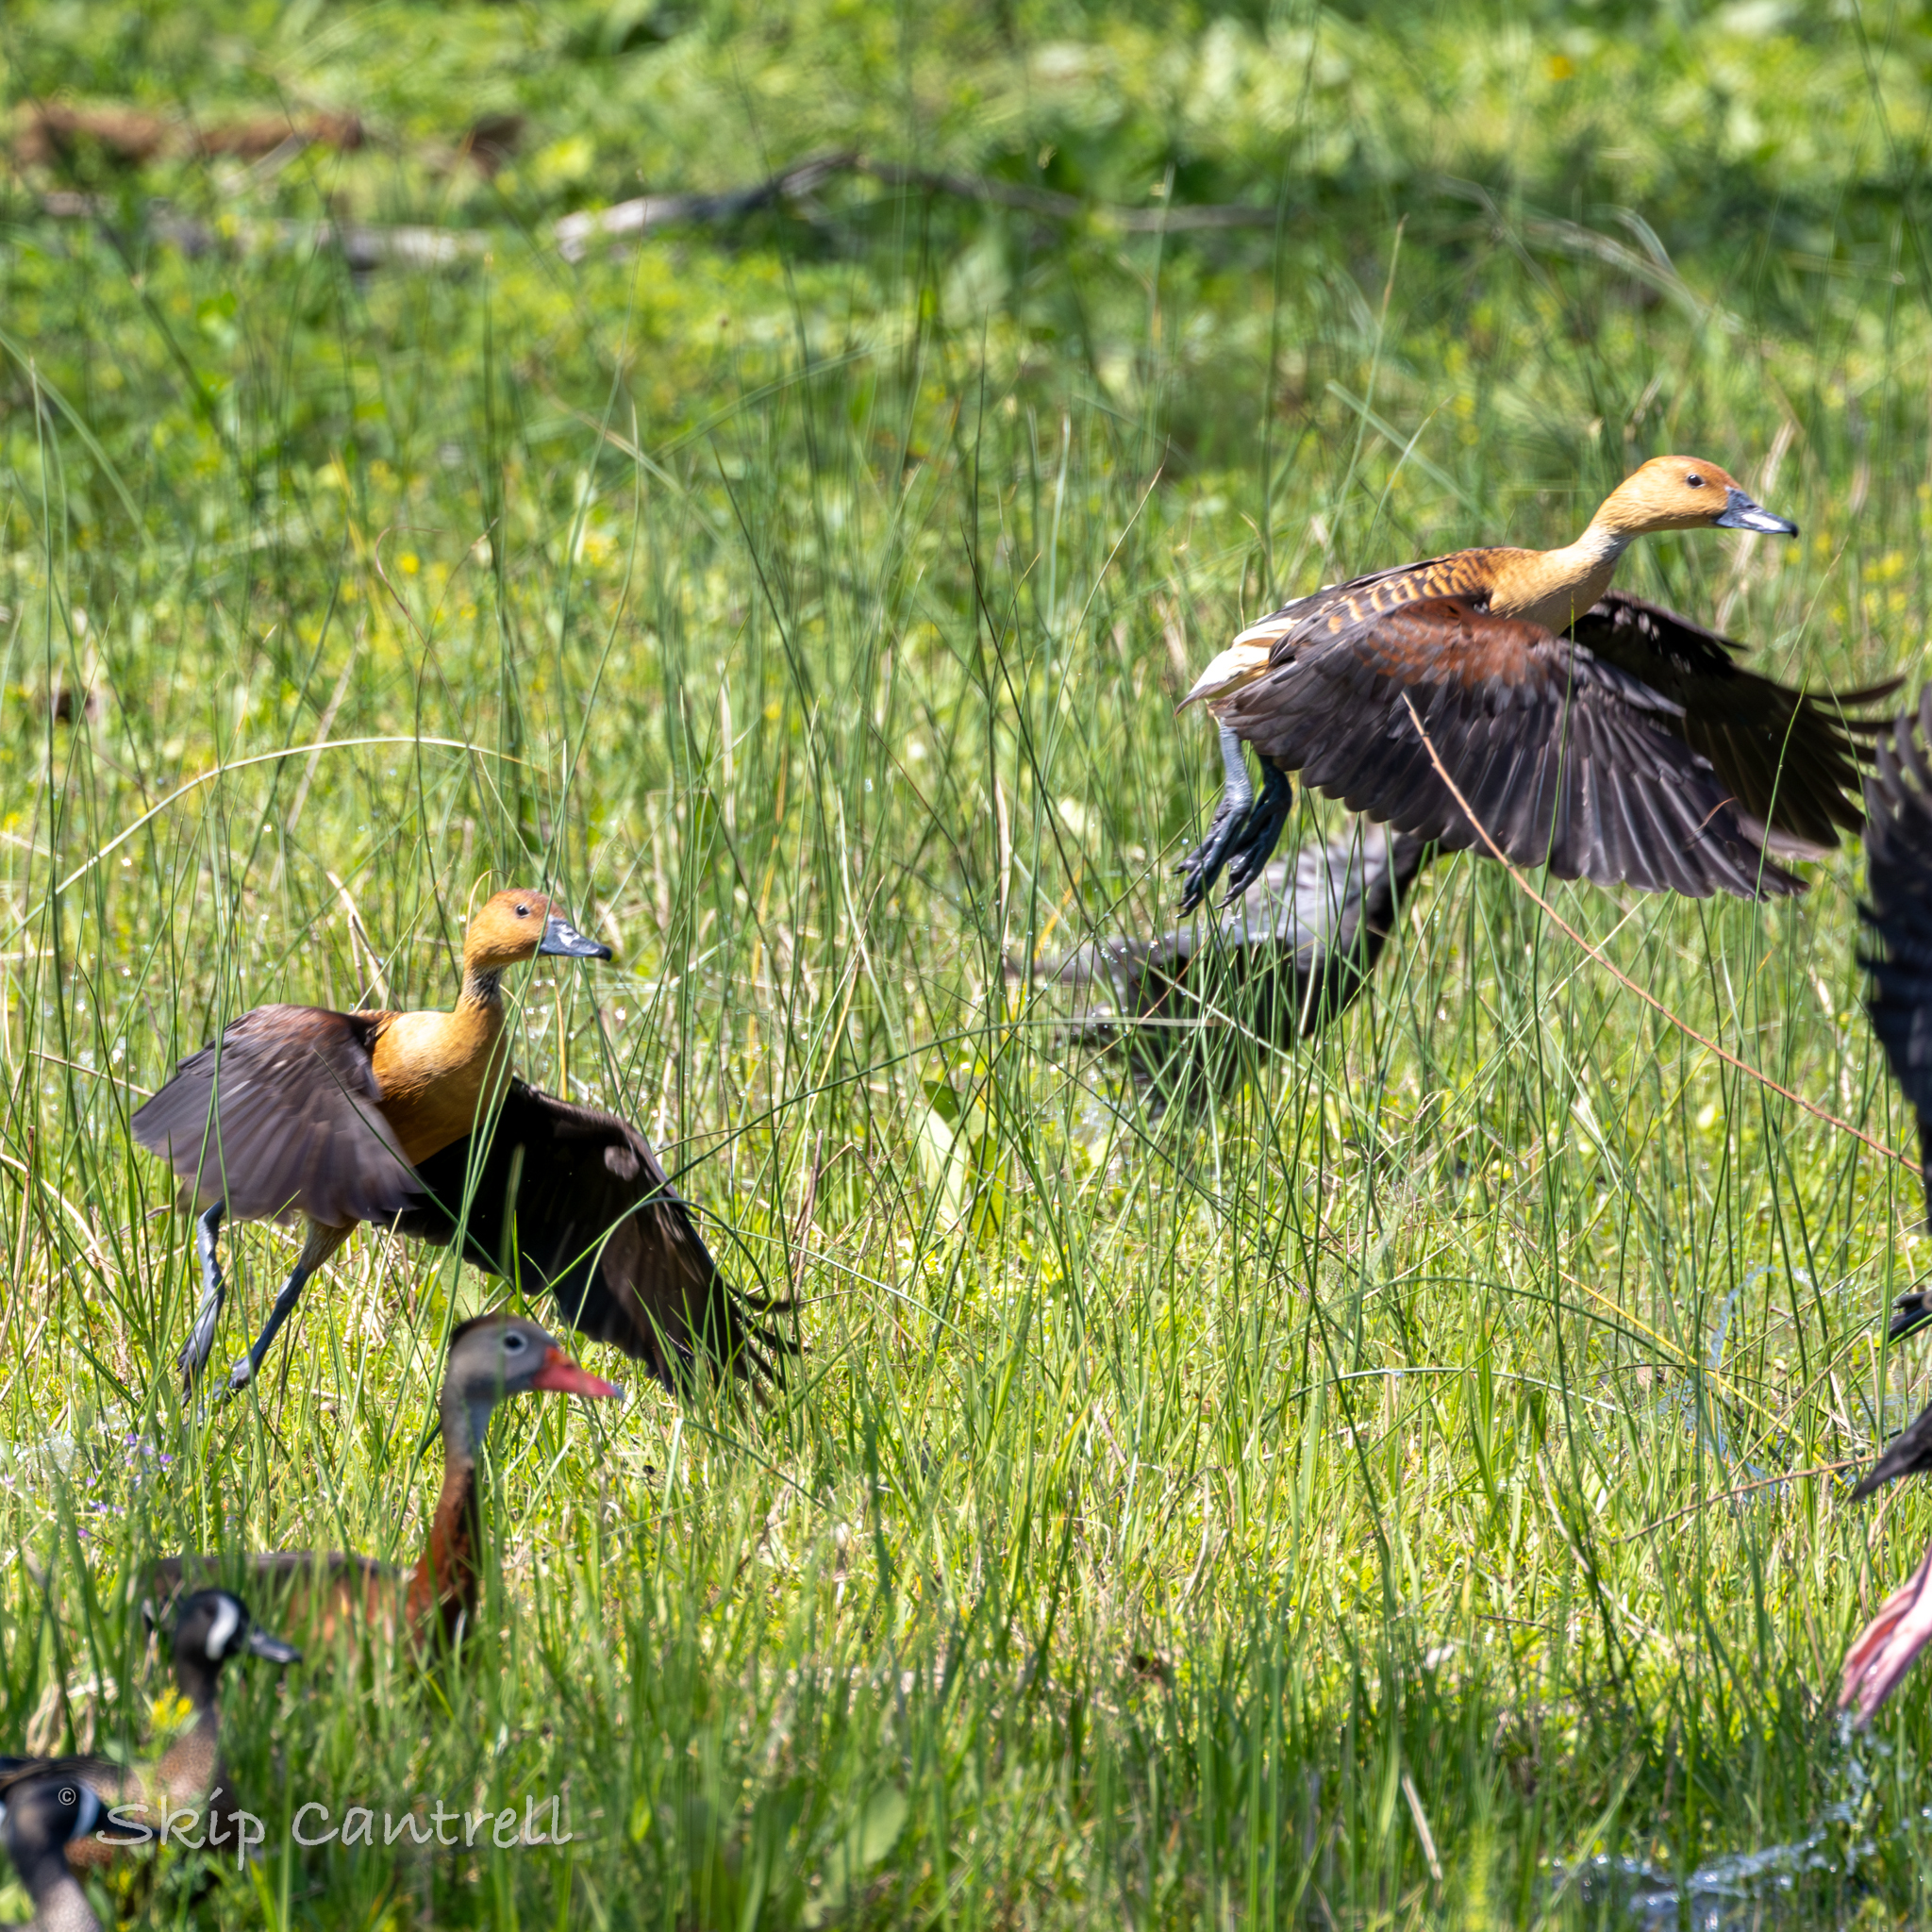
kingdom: Animalia
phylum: Chordata
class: Aves
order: Anseriformes
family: Anatidae
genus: Dendrocygna
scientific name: Dendrocygna bicolor
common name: Fulvous whistling duck
